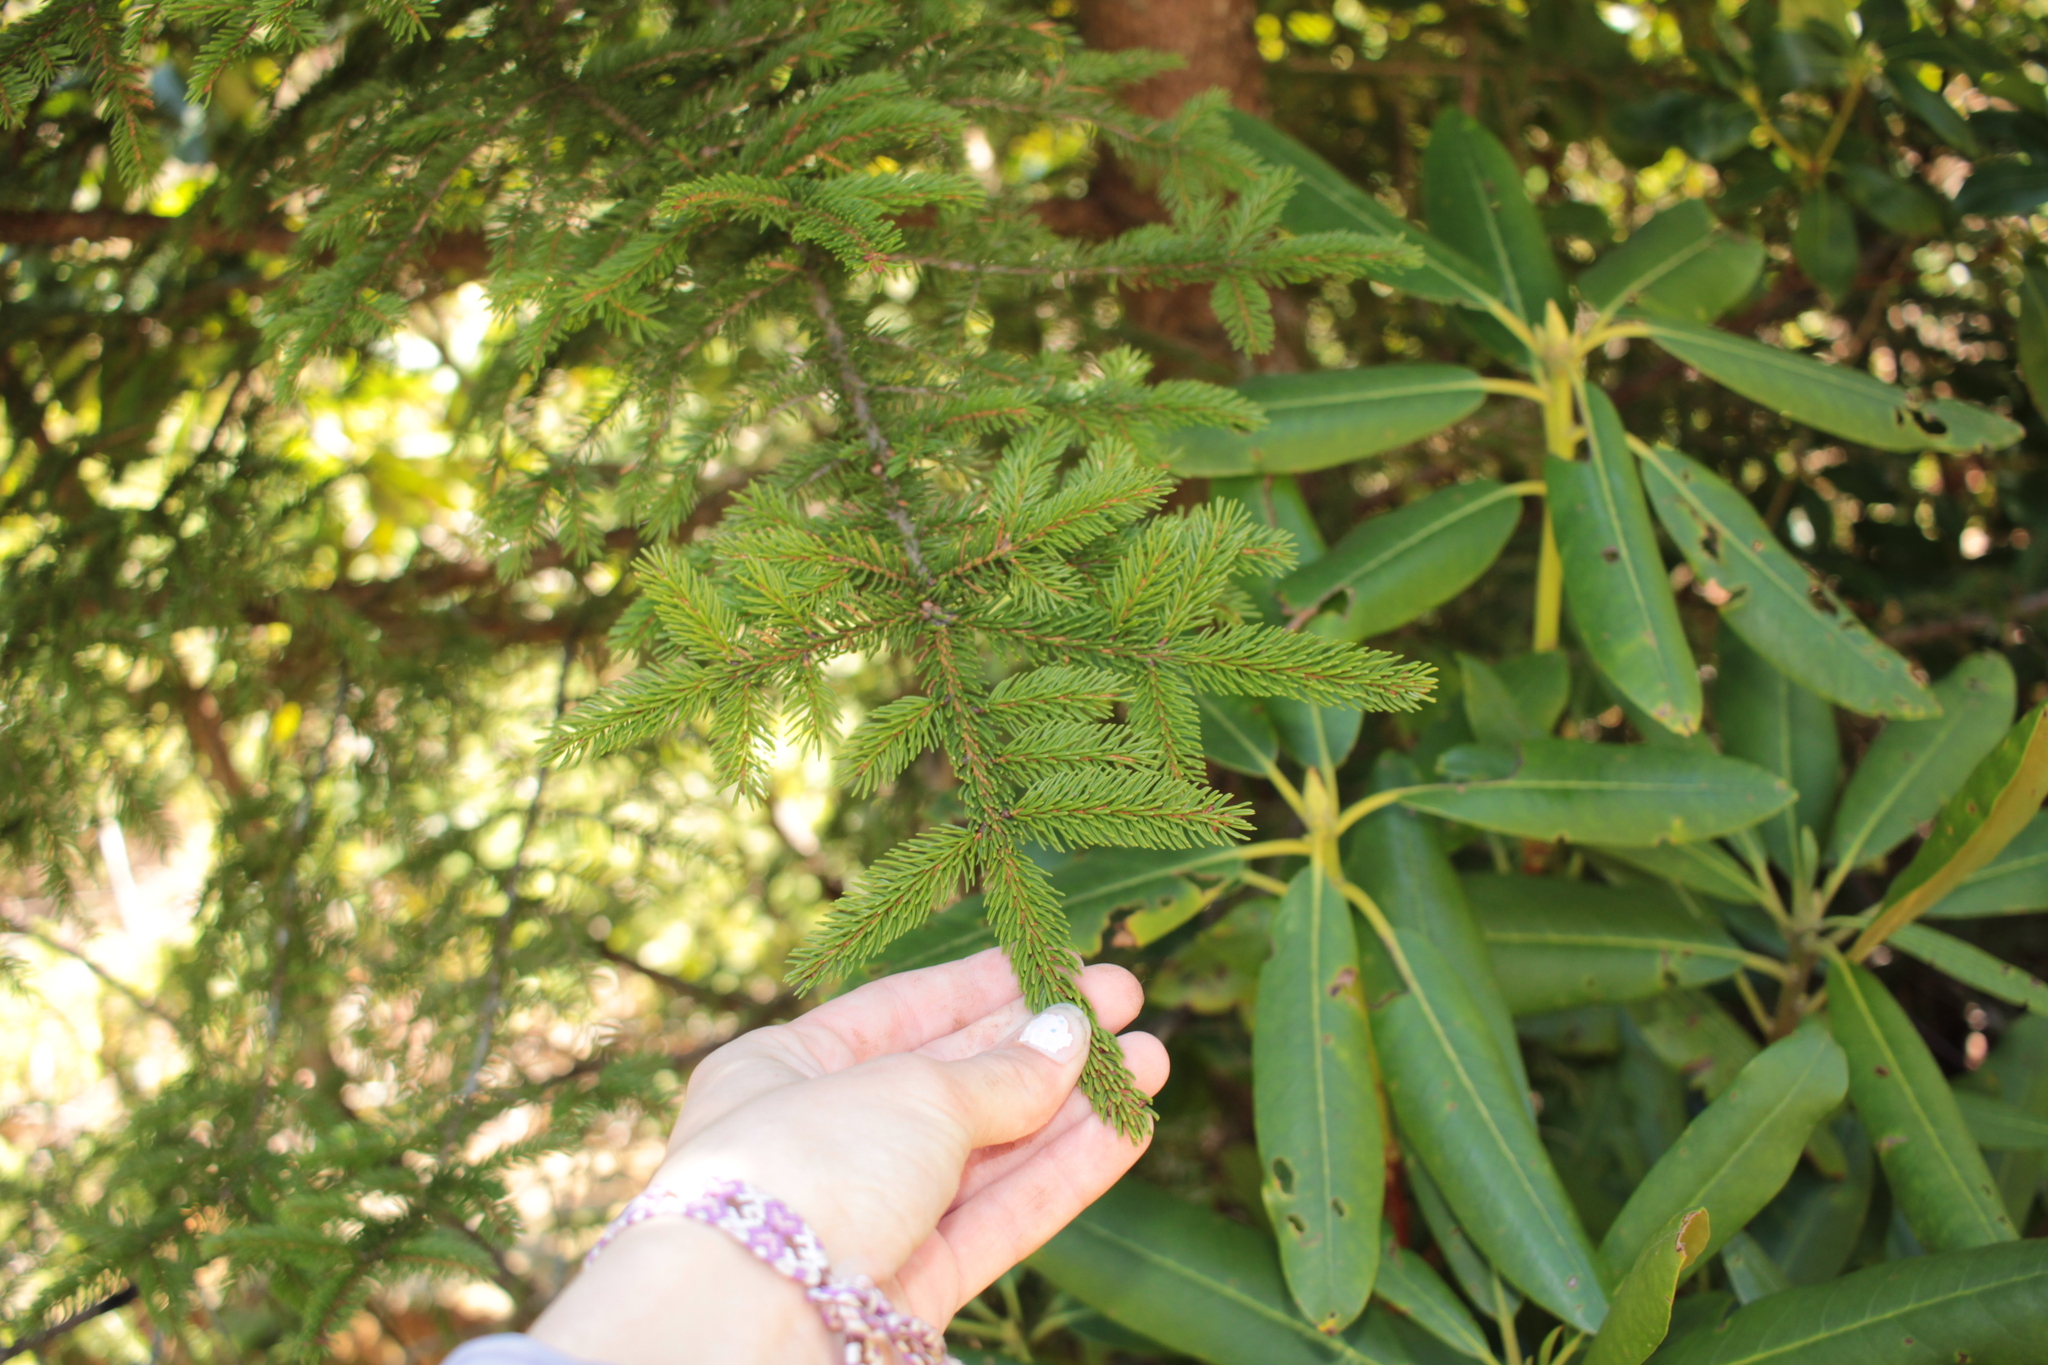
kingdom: Plantae
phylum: Tracheophyta
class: Pinopsida
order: Pinales
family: Pinaceae
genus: Picea
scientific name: Picea rubens
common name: Red spruce
